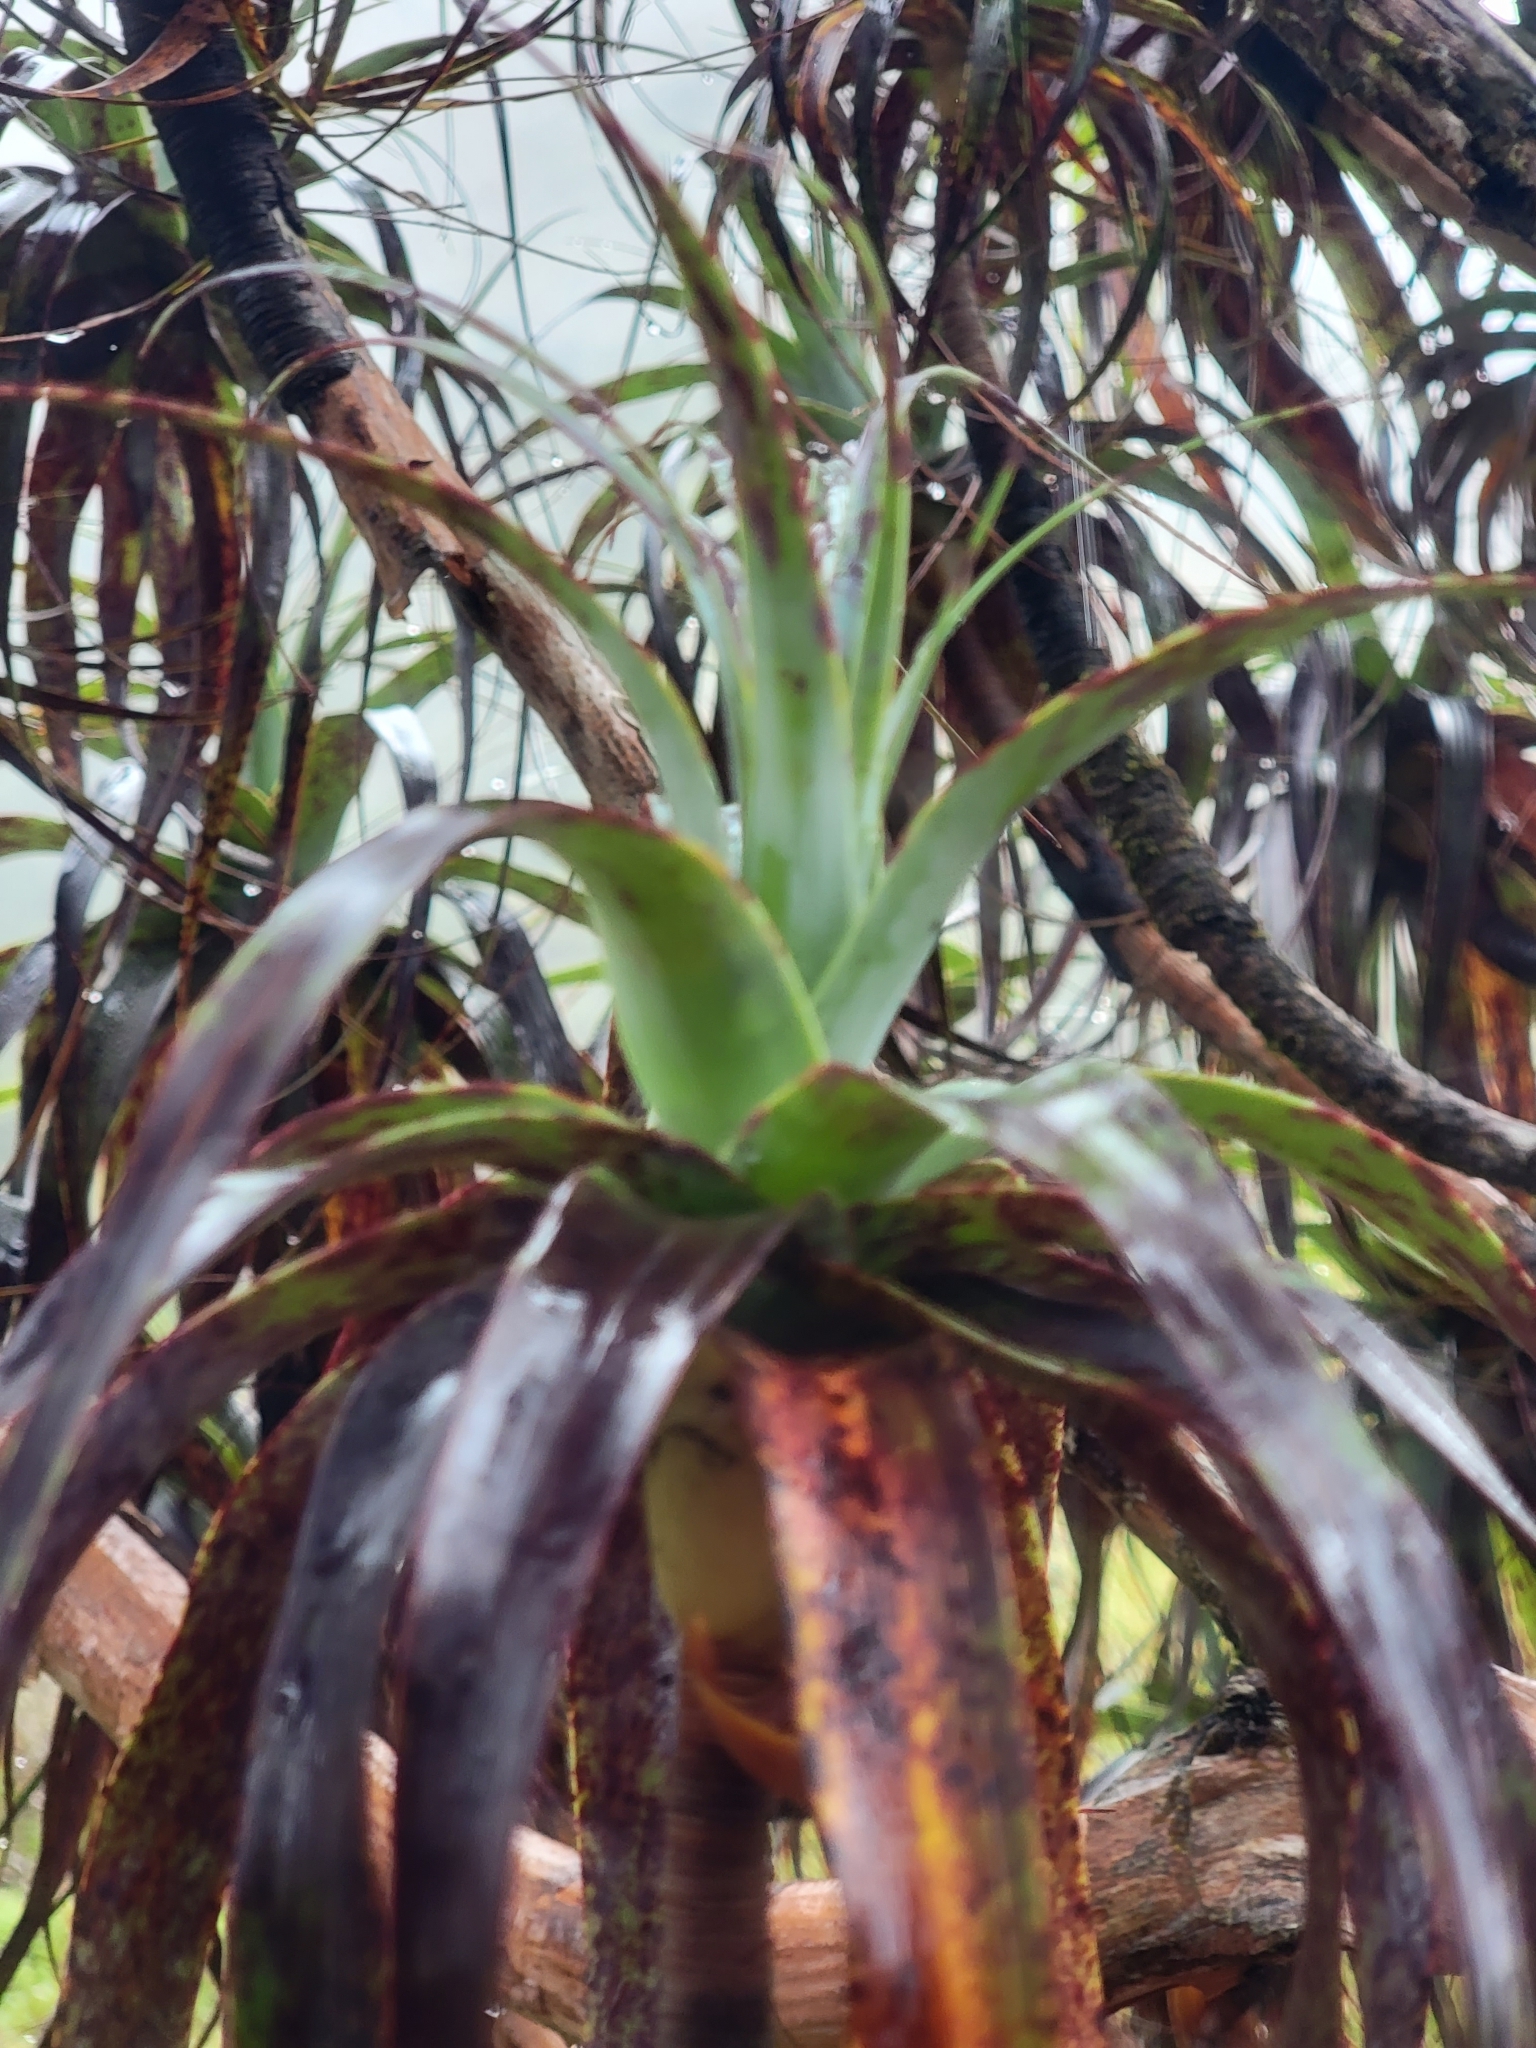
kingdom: Plantae
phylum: Tracheophyta
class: Magnoliopsida
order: Ericales
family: Ericaceae
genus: Dracophyllum
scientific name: Dracophyllum traversii
